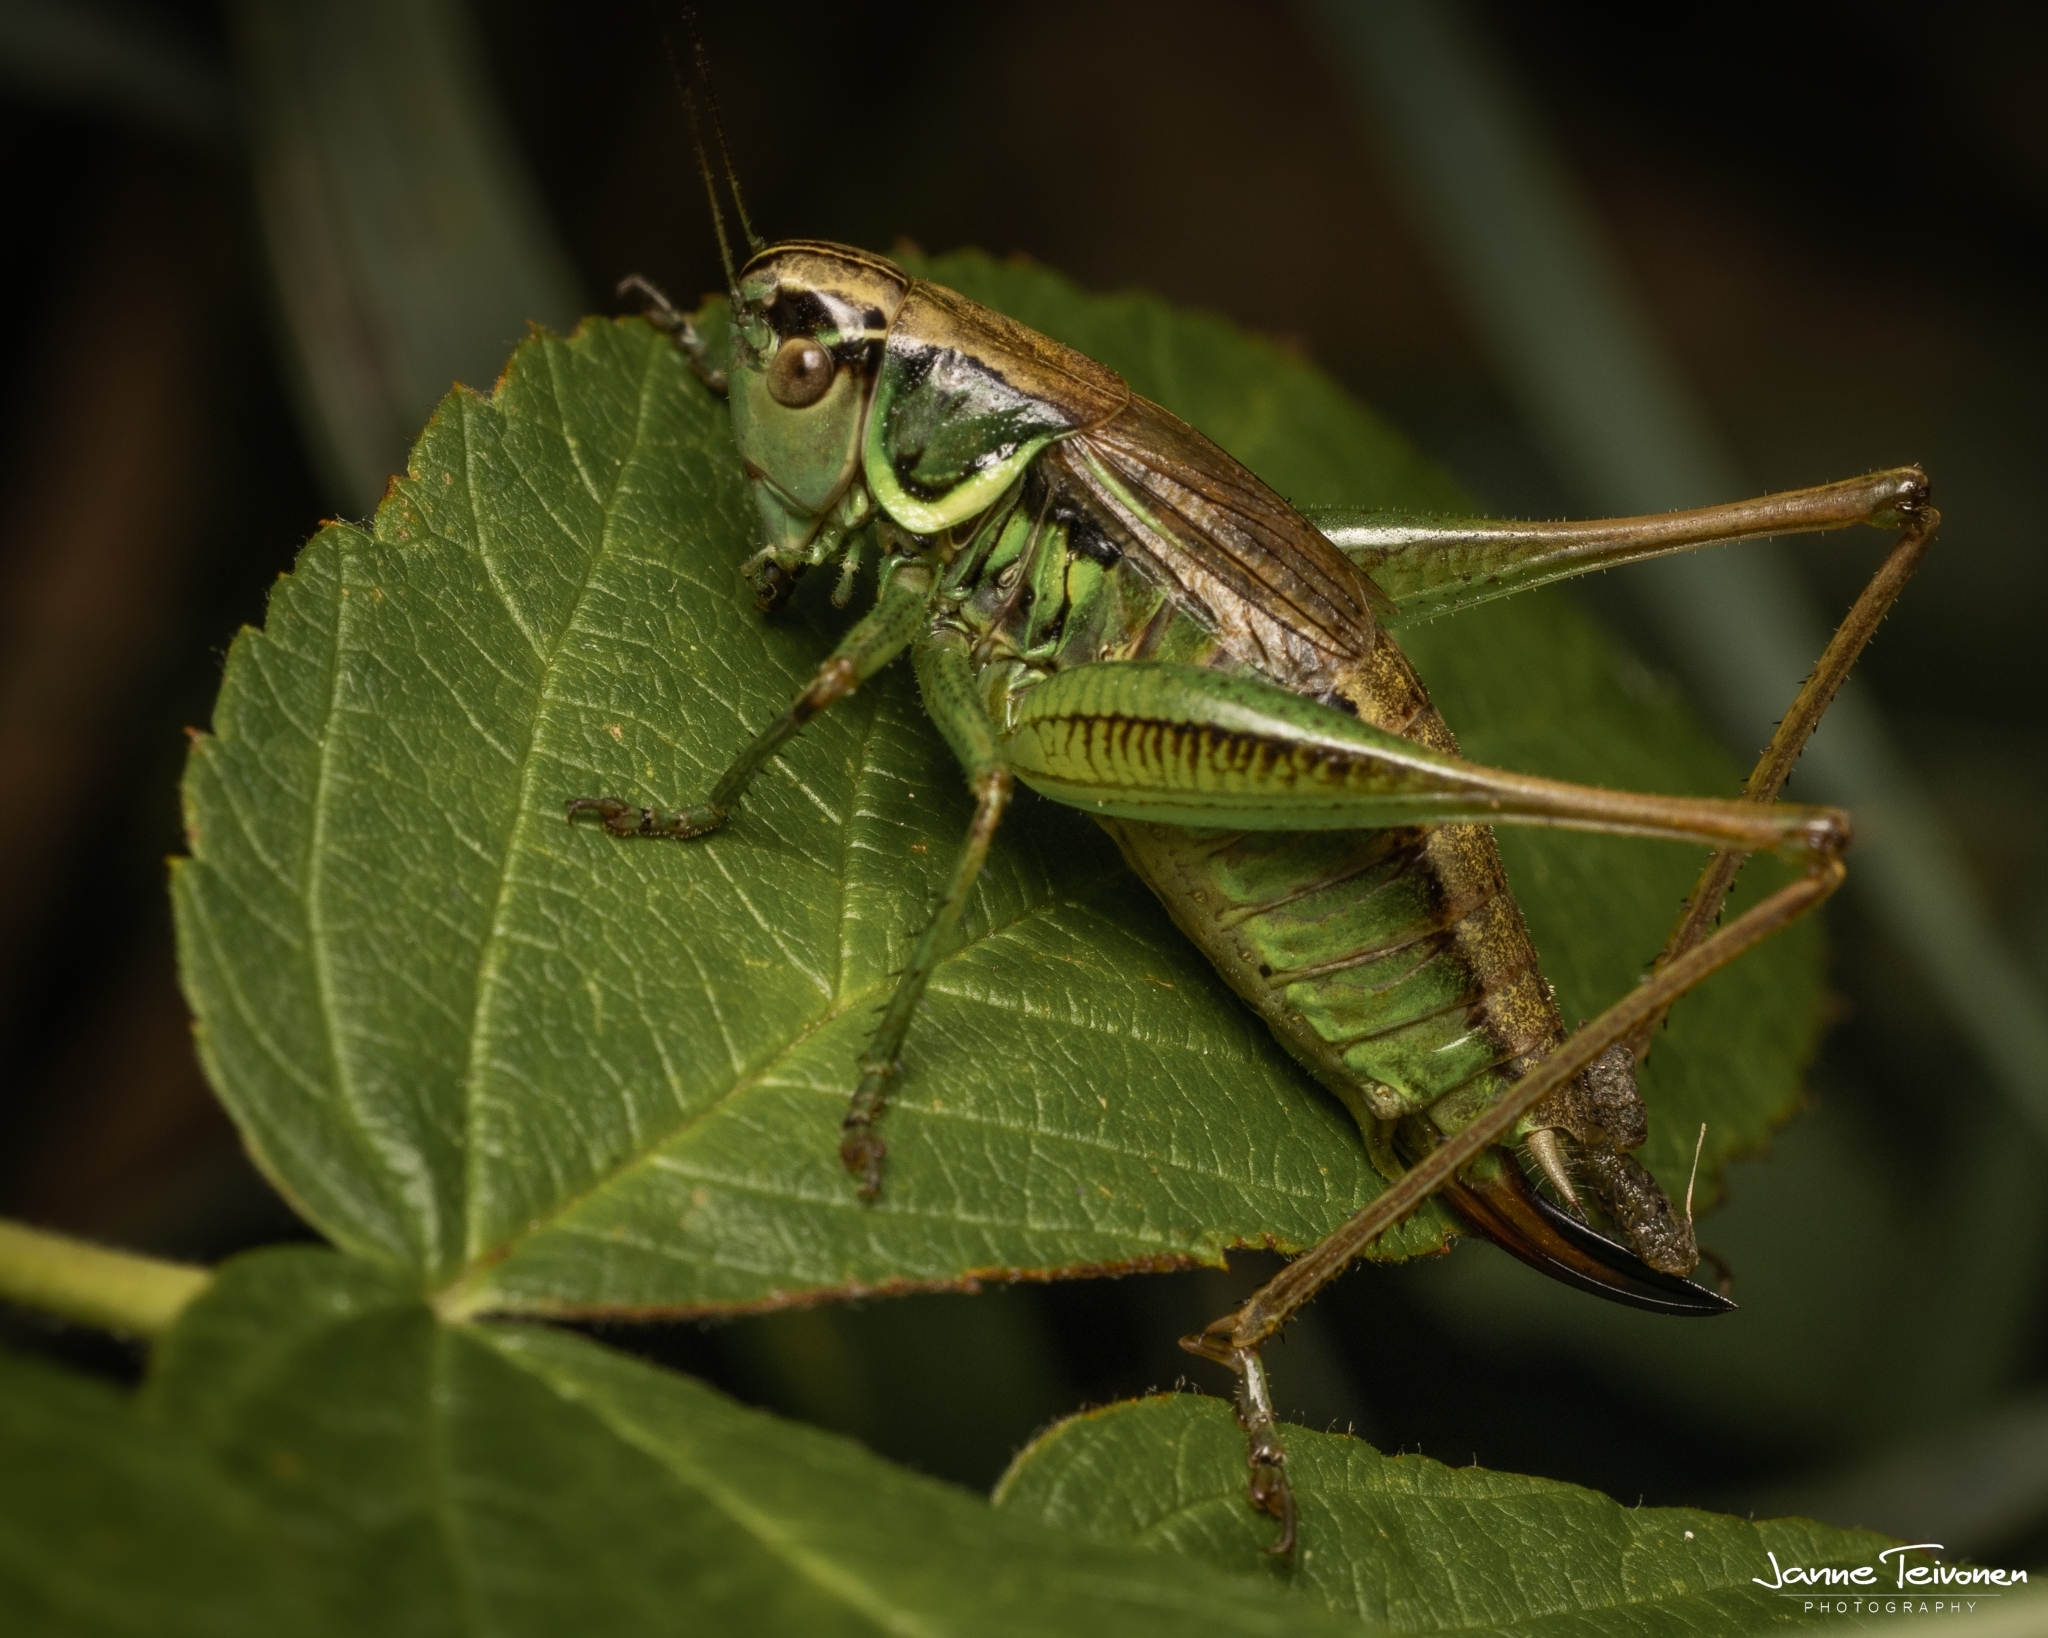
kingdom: Animalia
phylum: Arthropoda
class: Insecta
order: Orthoptera
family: Tettigoniidae
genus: Roeseliana
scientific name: Roeseliana roeselii
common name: Roesel's bush cricket
